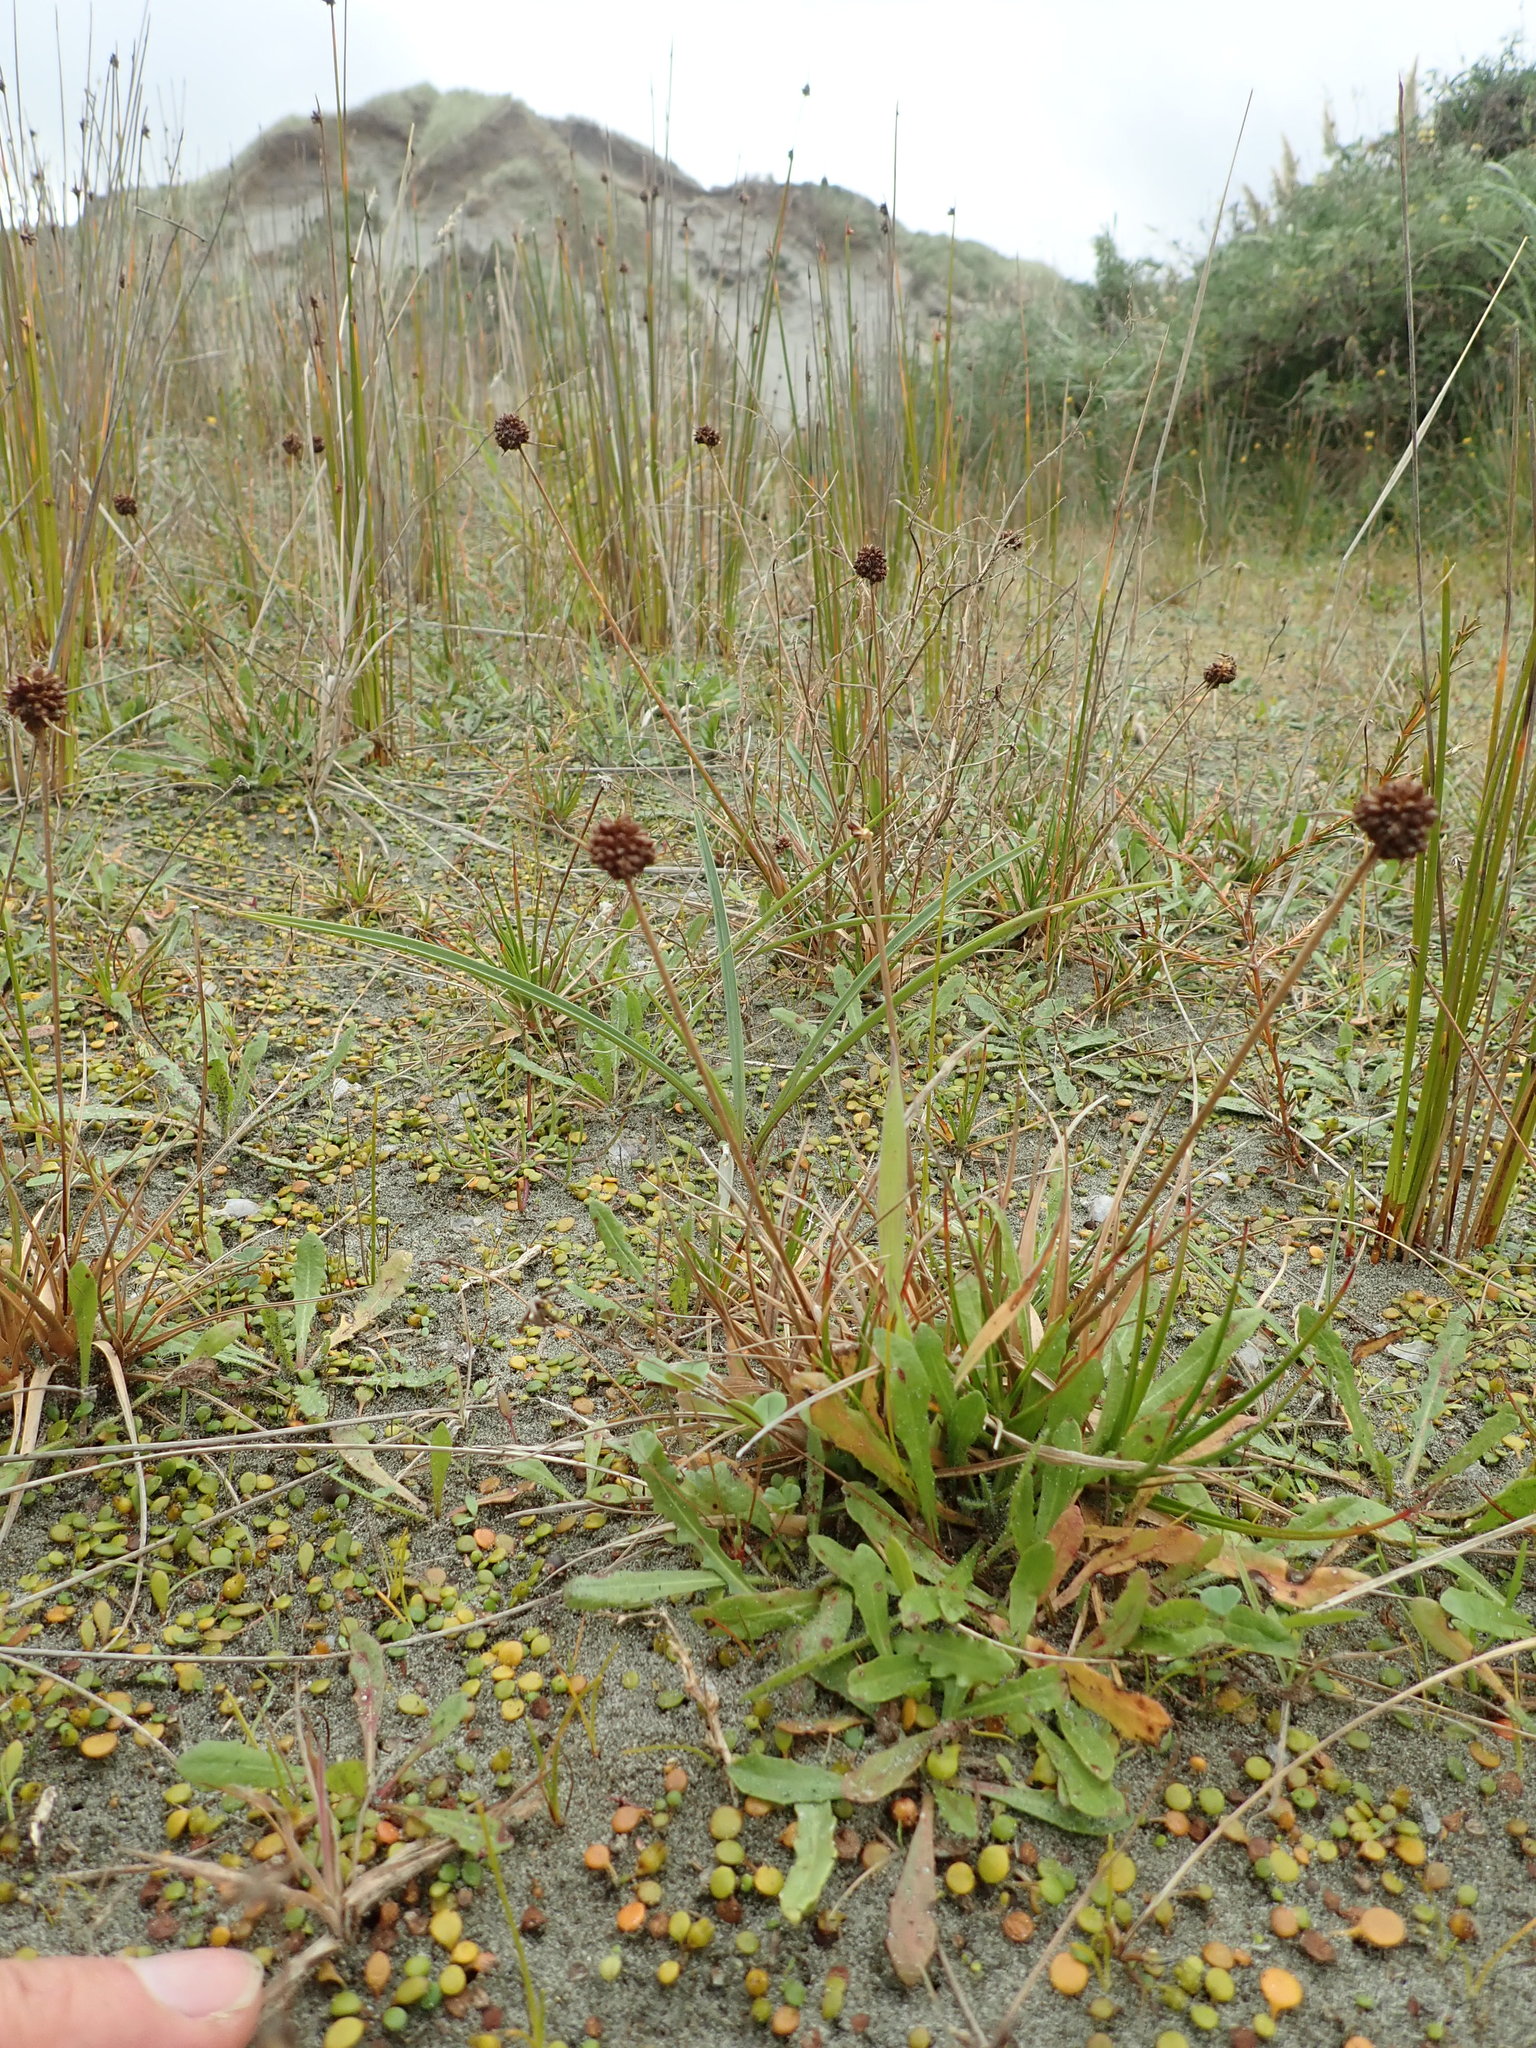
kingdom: Plantae
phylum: Tracheophyta
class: Liliopsida
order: Poales
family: Juncaceae
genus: Juncus
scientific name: Juncus caespiticius
